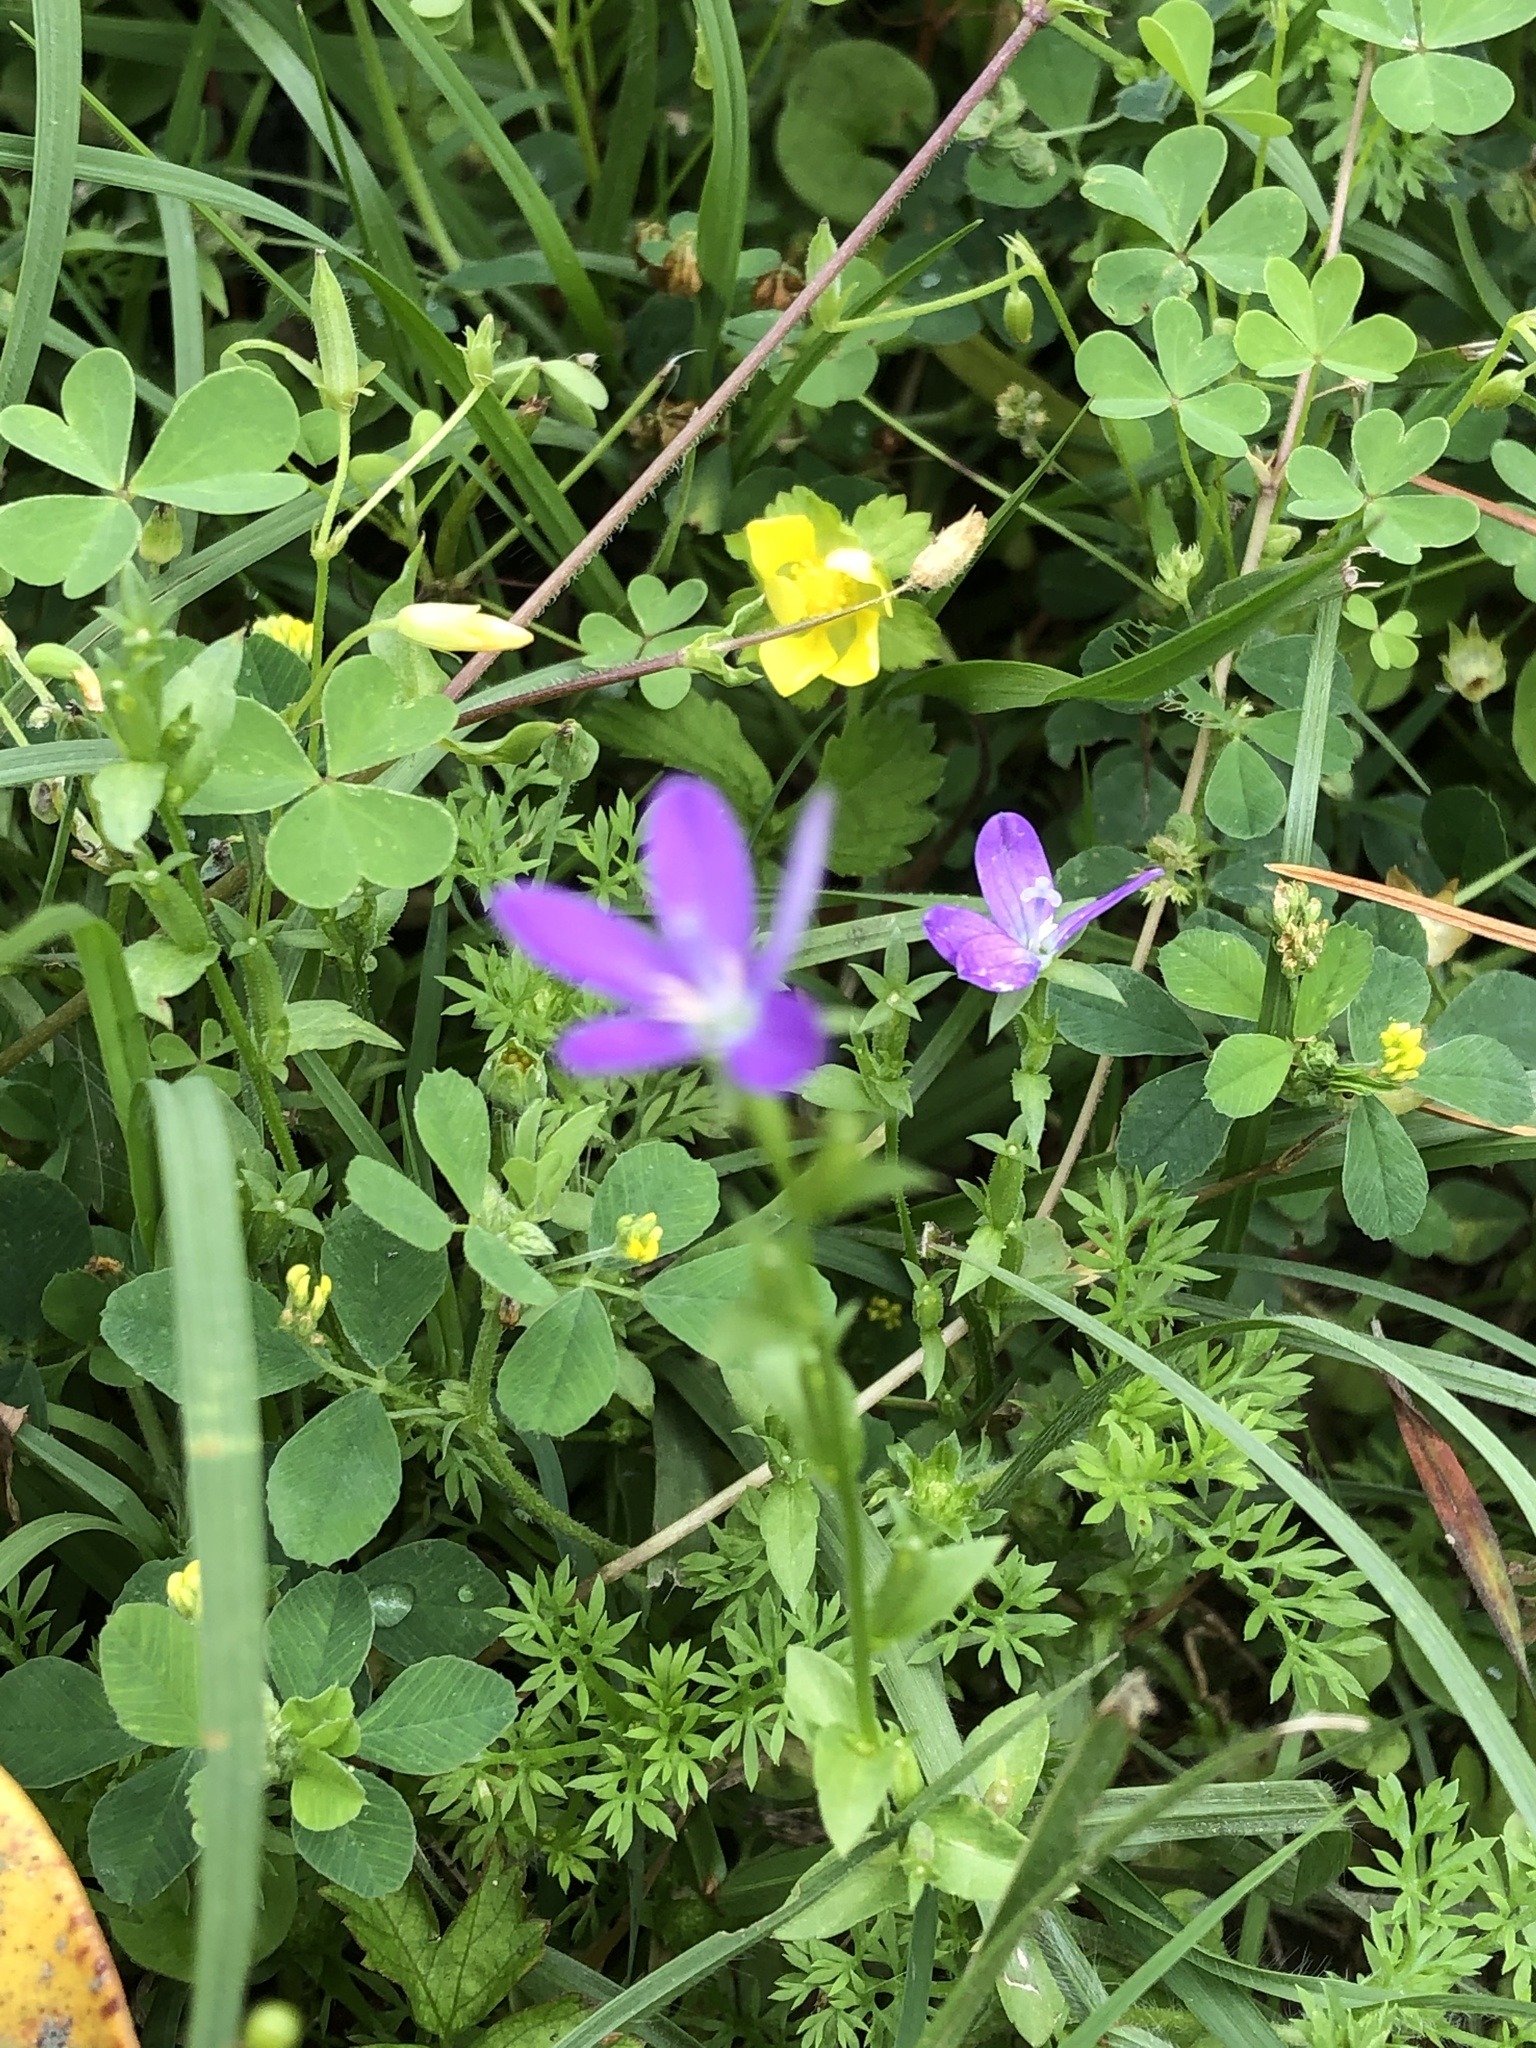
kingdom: Plantae
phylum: Tracheophyta
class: Magnoliopsida
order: Asterales
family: Campanulaceae
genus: Triodanis
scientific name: Triodanis biflora
